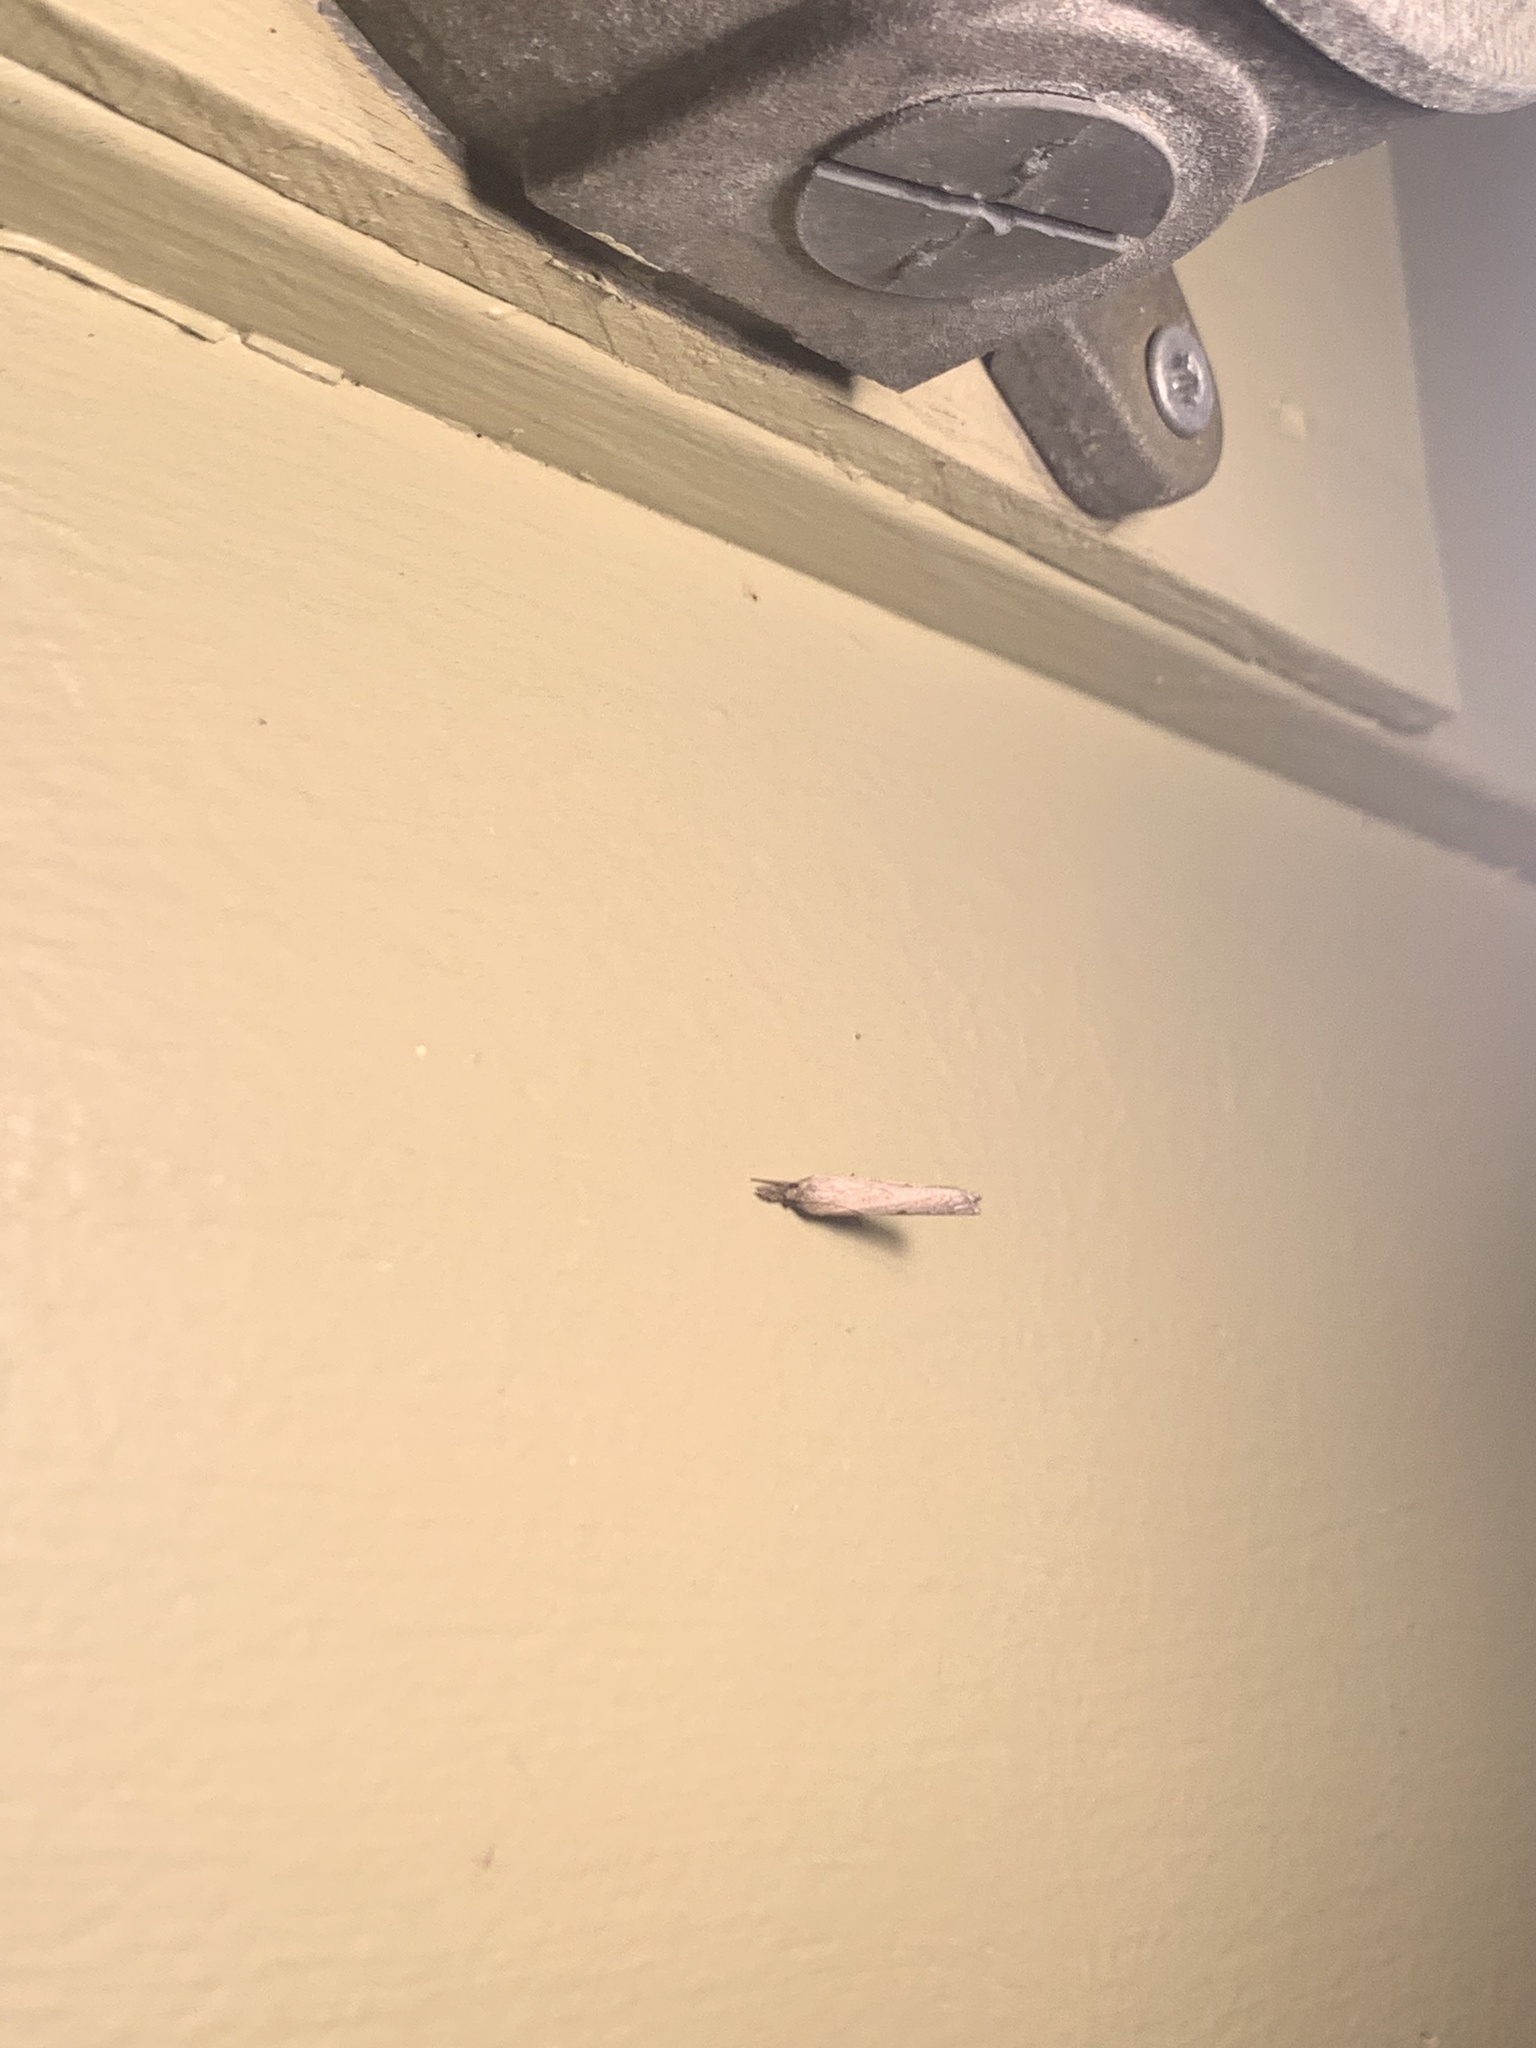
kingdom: Animalia
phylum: Arthropoda
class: Insecta
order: Lepidoptera
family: Crambidae
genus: Parapediasia
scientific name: Parapediasia teterellus
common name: Bluegrass webworm moth
